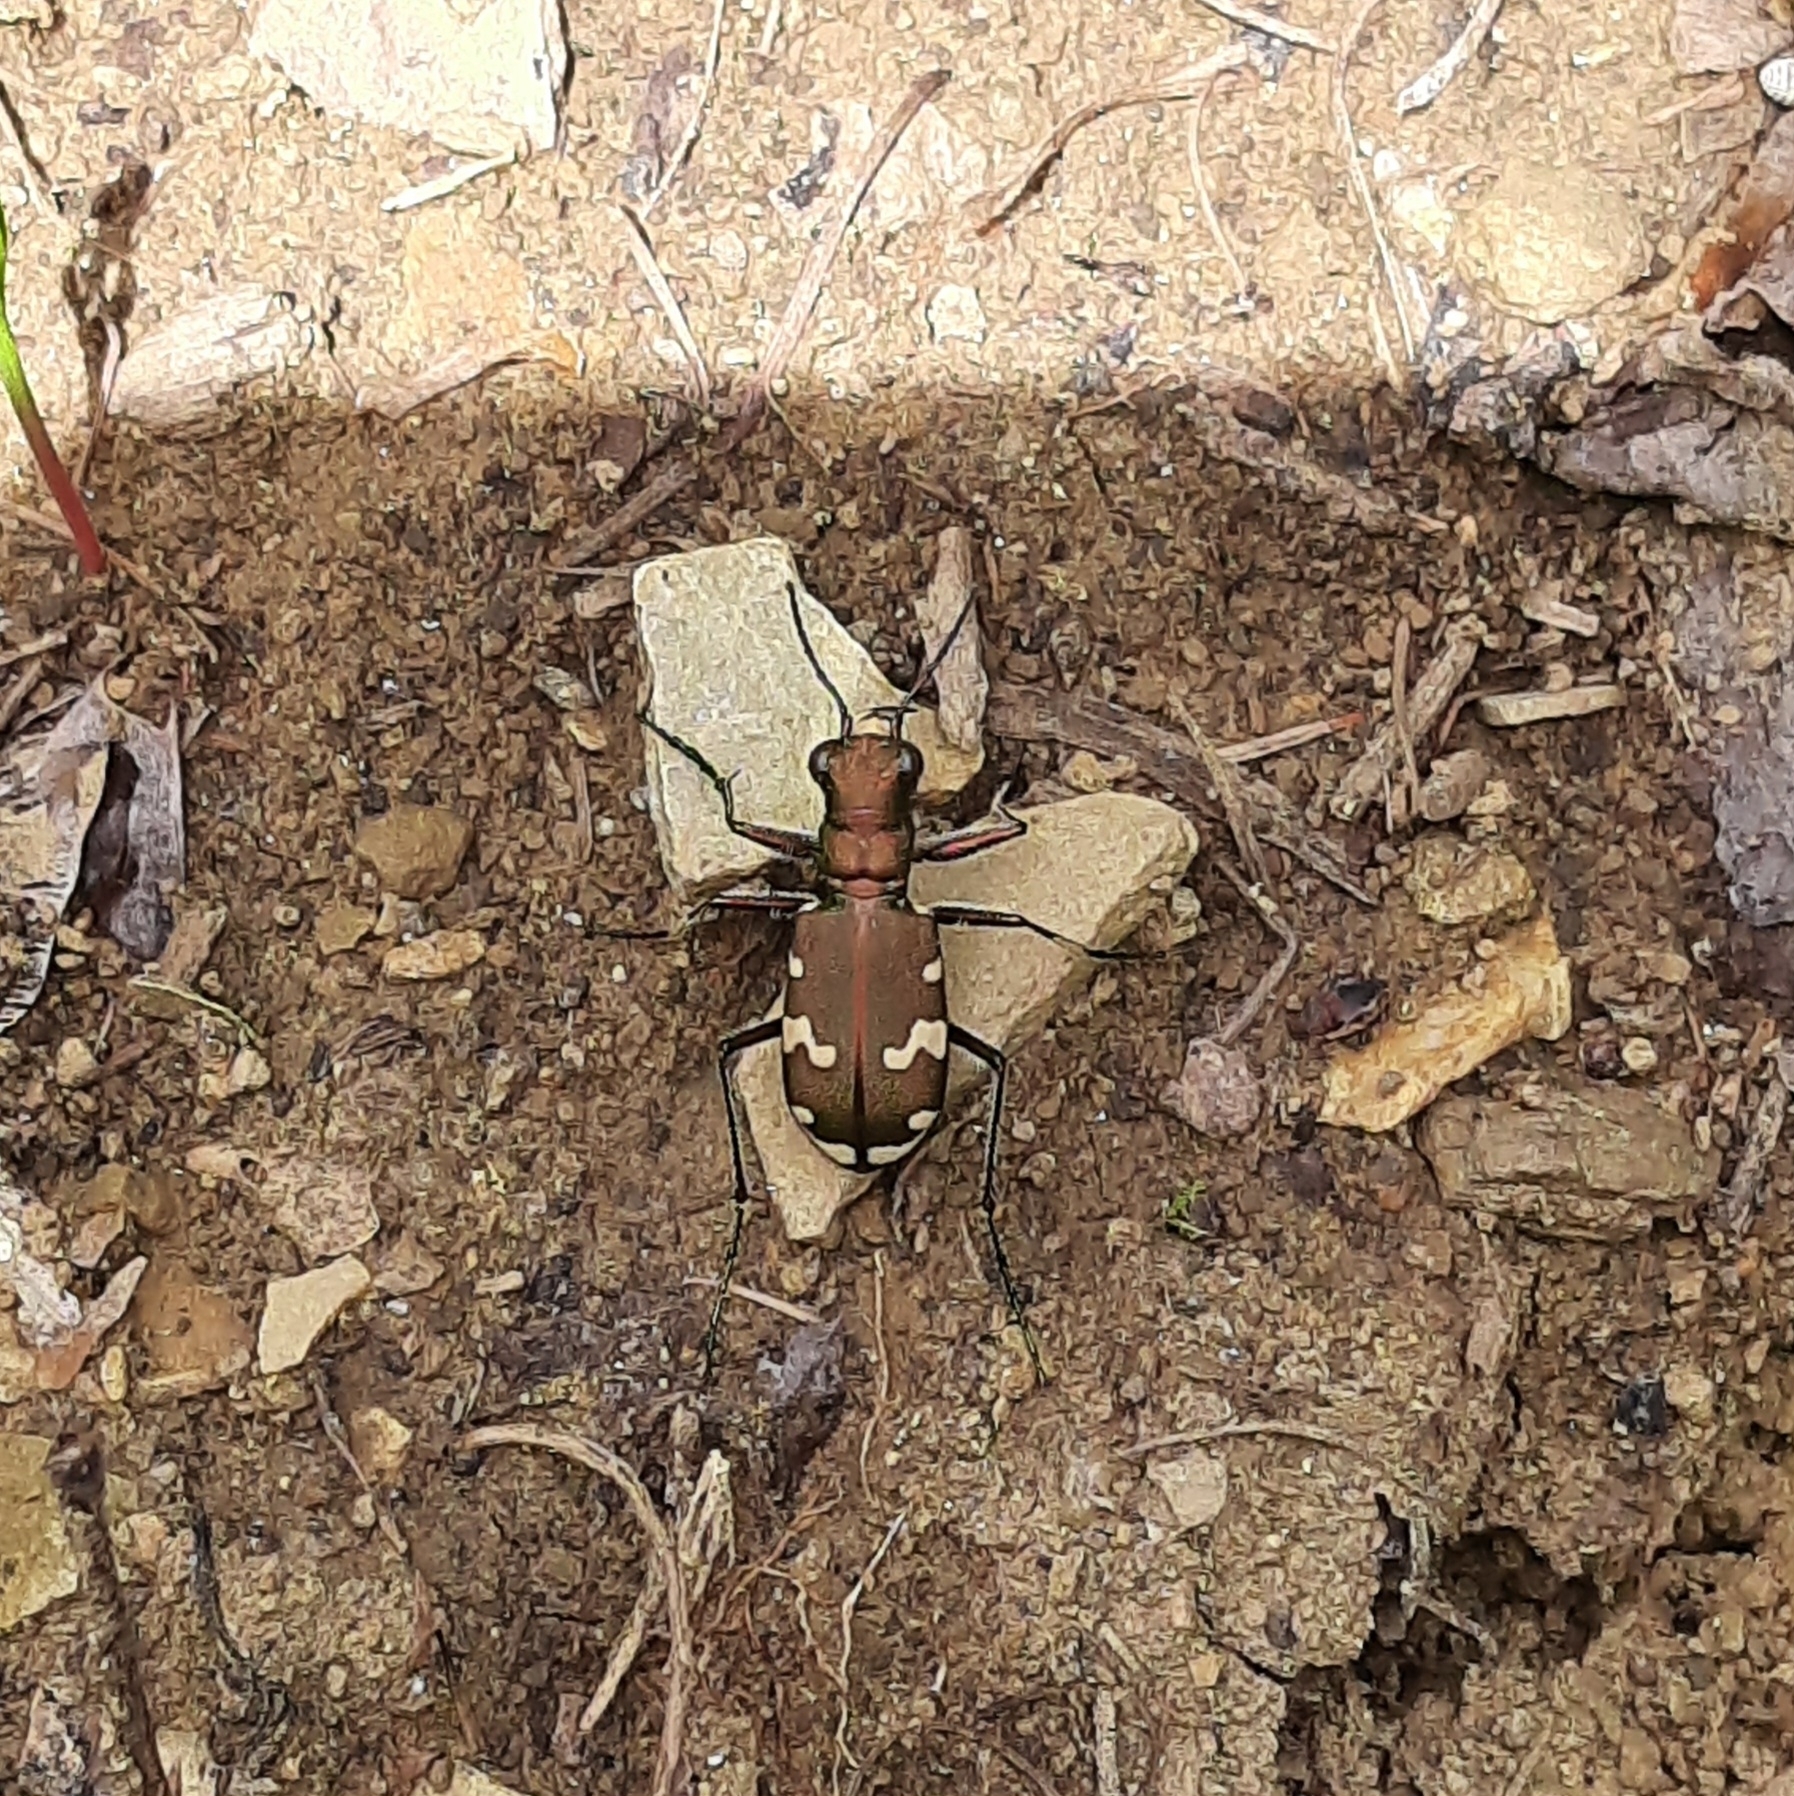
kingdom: Animalia
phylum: Arthropoda
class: Insecta
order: Coleoptera
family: Carabidae
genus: Cicindela
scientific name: Cicindela sylvicola
